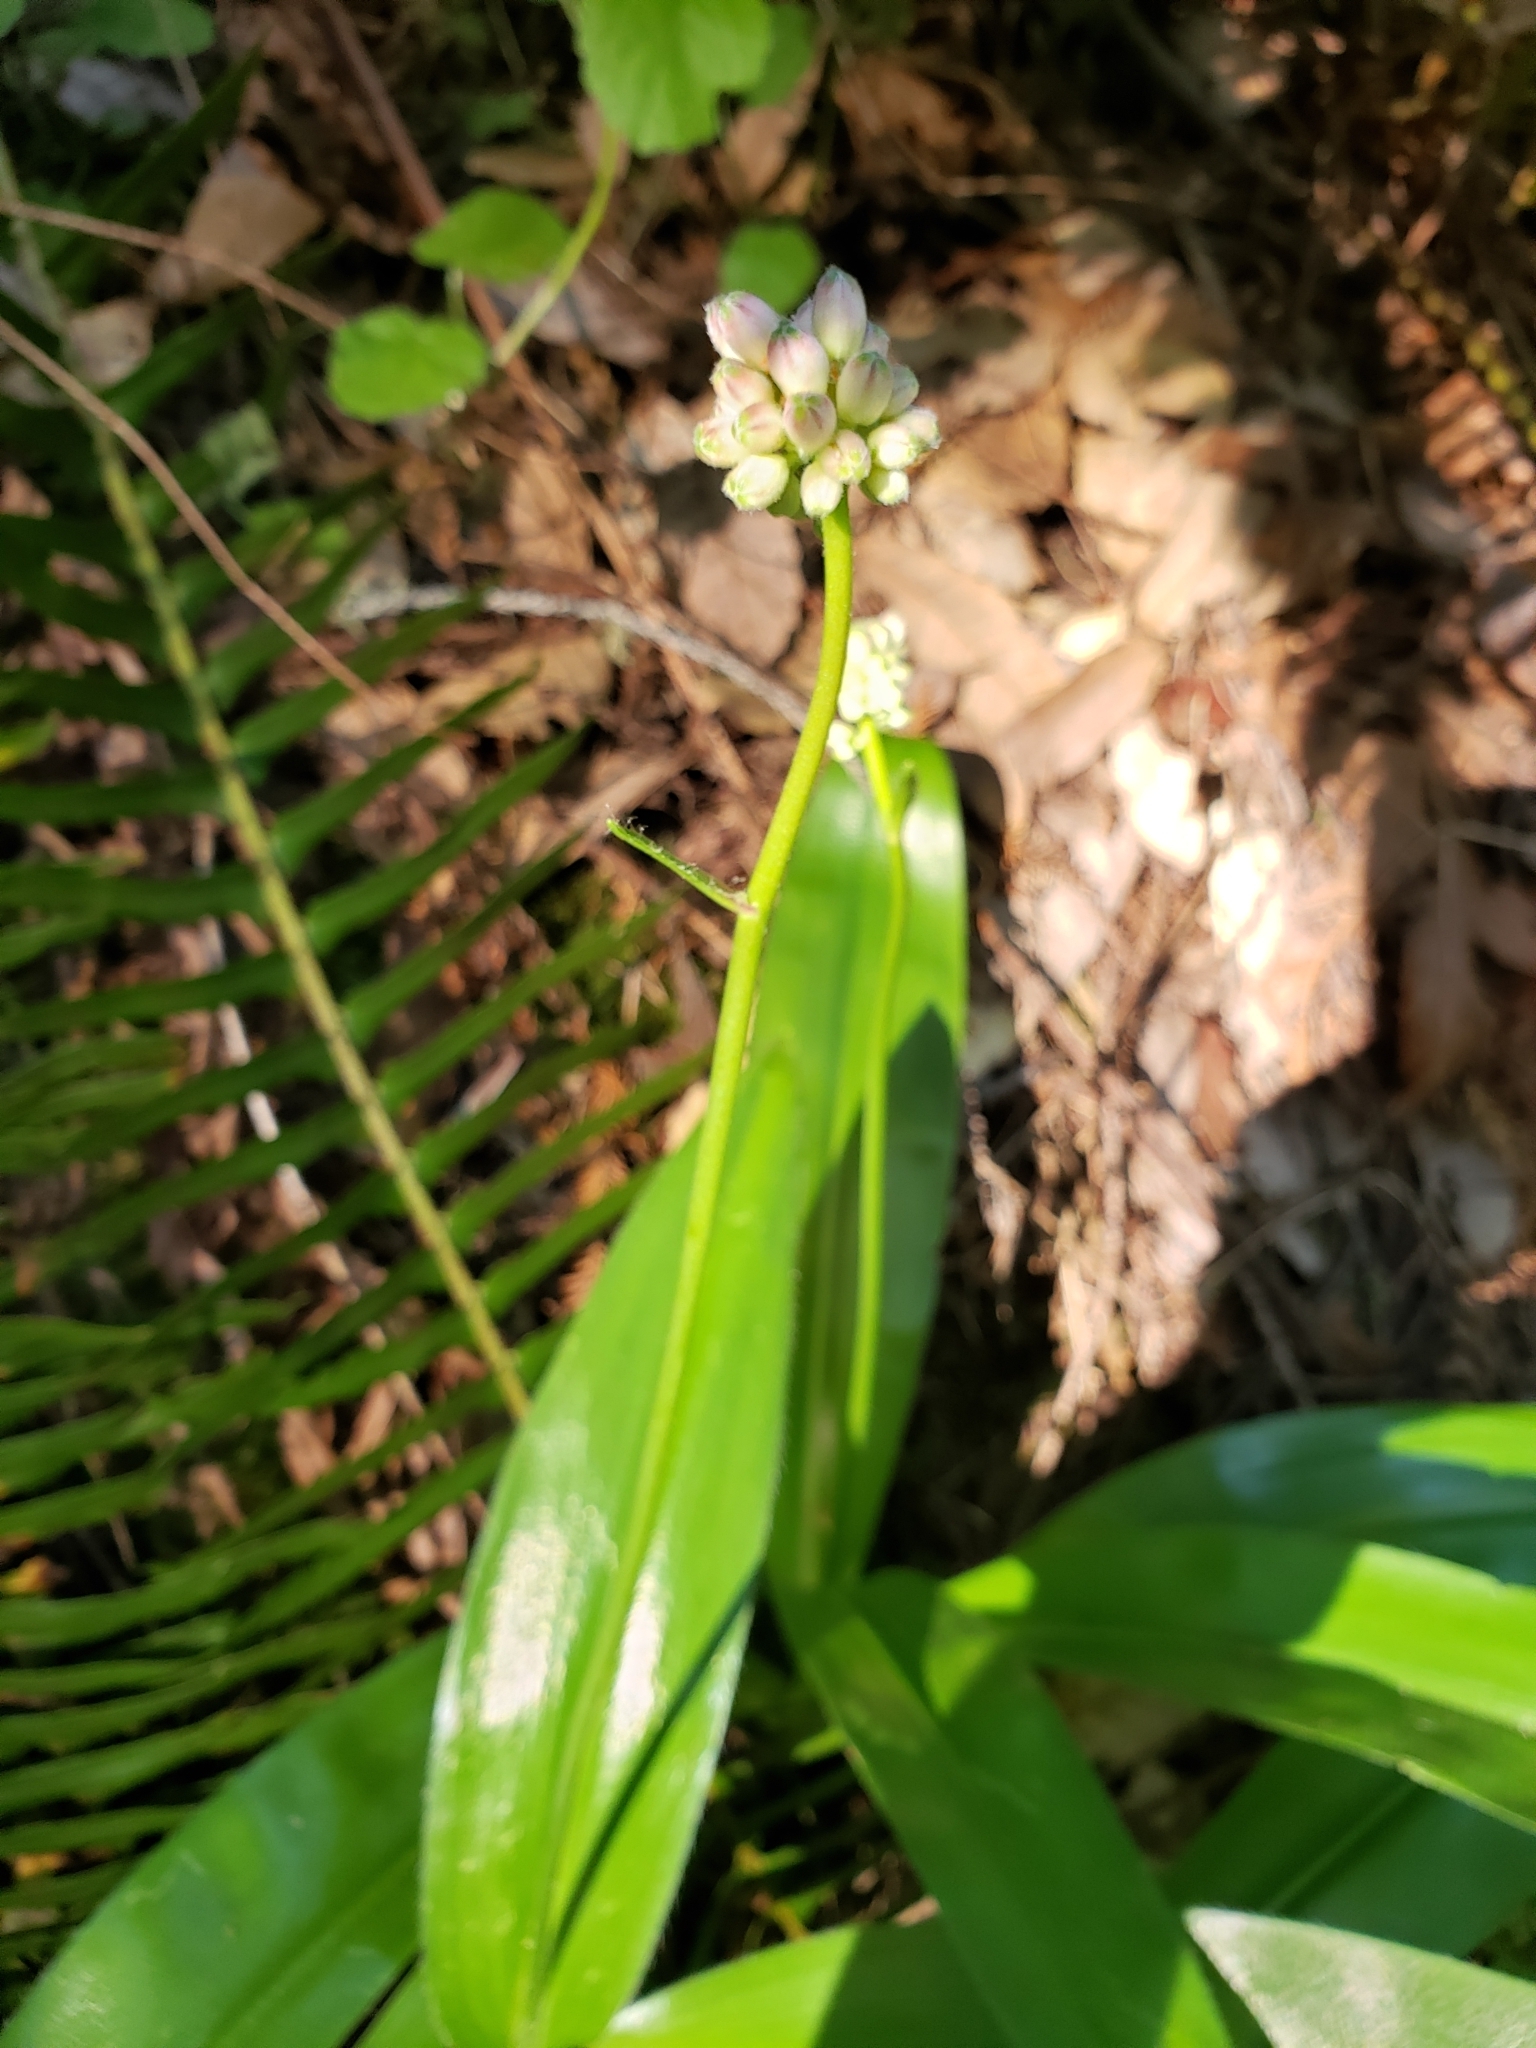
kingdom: Plantae
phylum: Tracheophyta
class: Liliopsida
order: Liliales
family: Liliaceae
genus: Clintonia
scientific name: Clintonia andrewsiana
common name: Red clintonia
